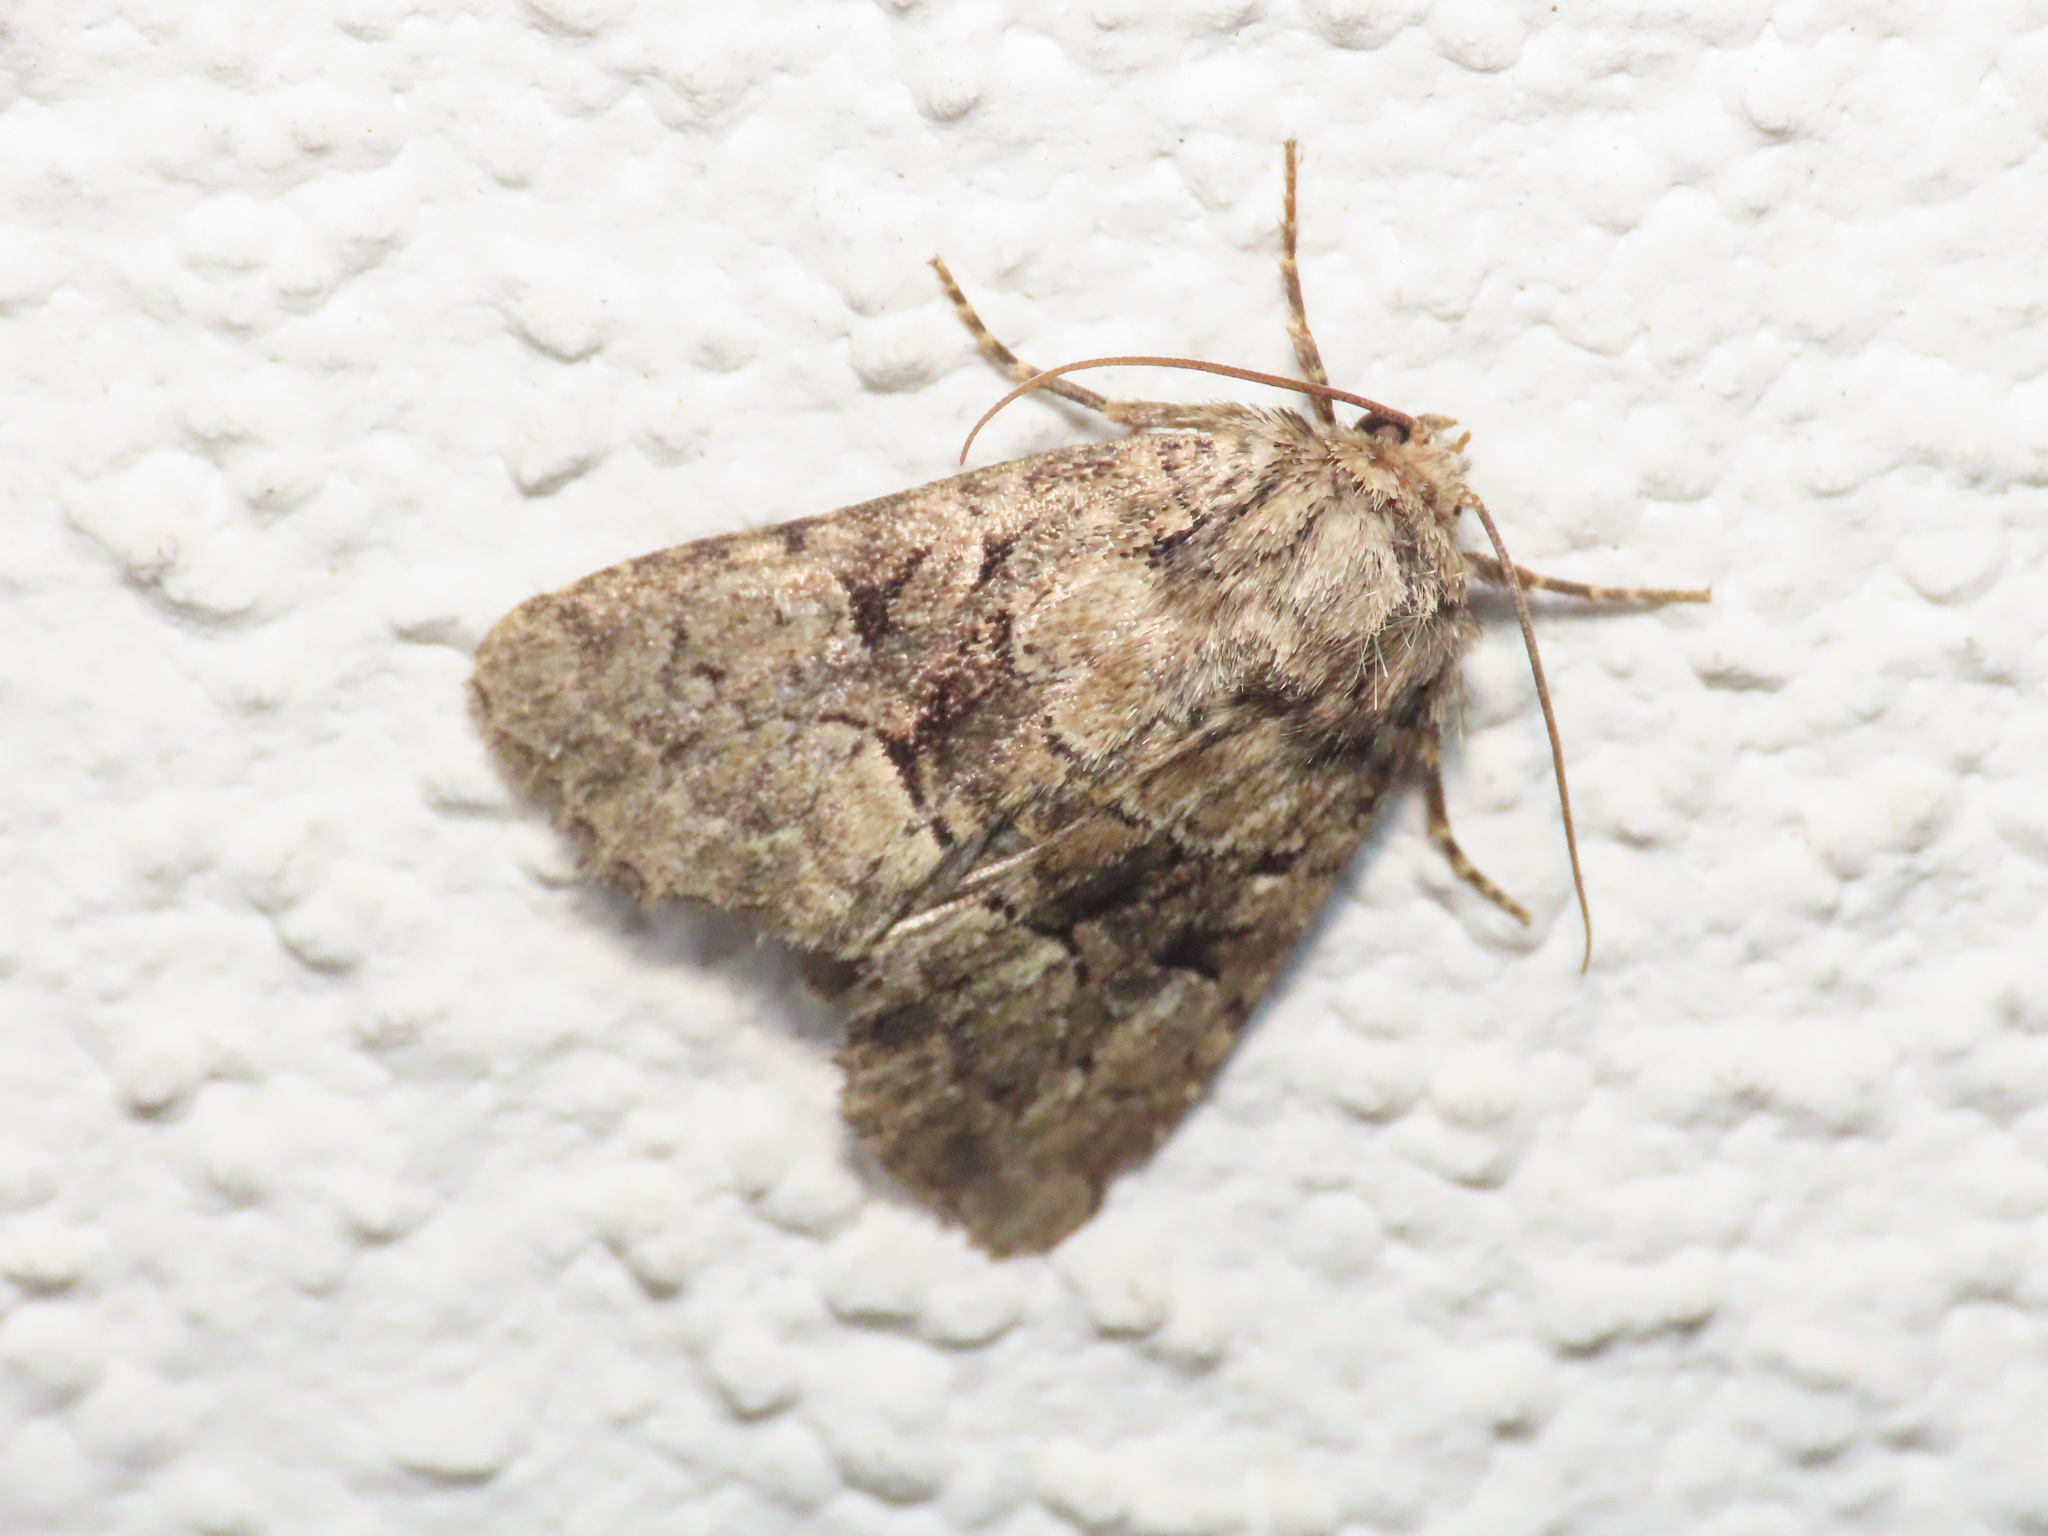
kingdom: Animalia
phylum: Arthropoda
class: Insecta
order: Lepidoptera
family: Noctuidae
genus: Lasionycta
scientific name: Lasionycta Clemathada calberlai
